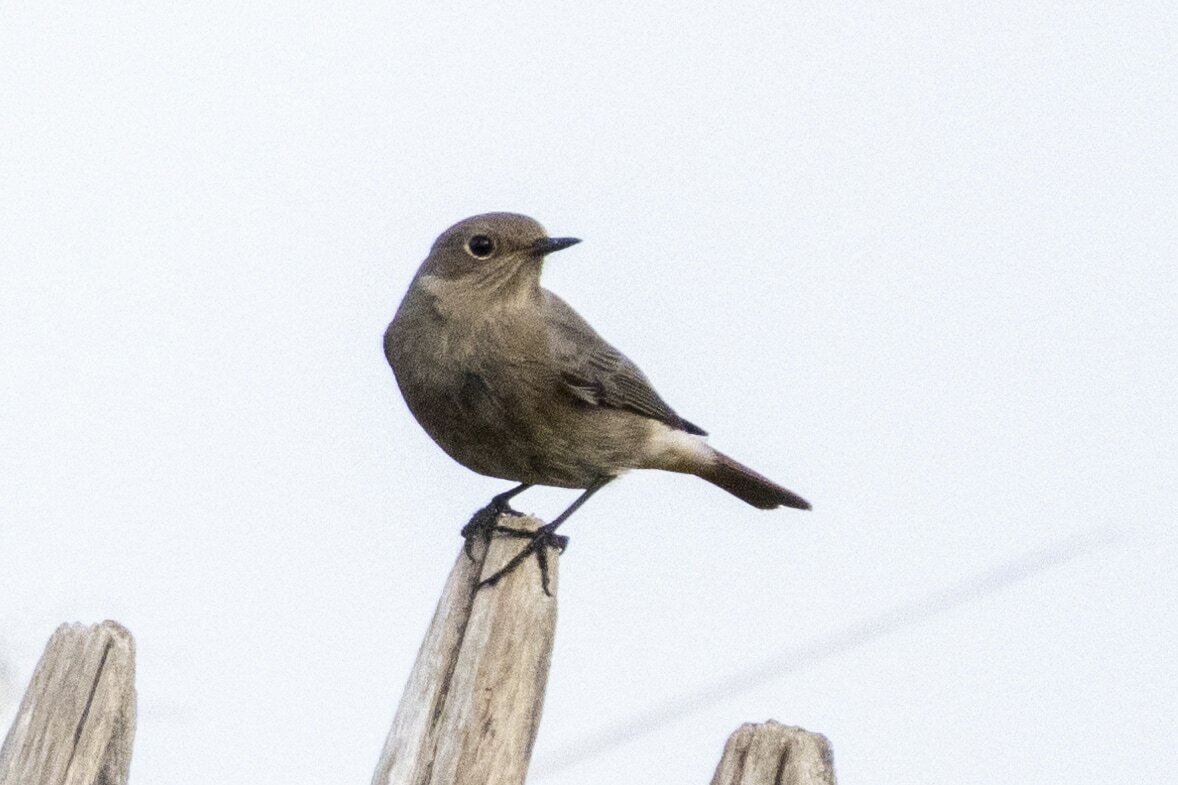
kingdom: Animalia
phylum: Chordata
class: Aves
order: Passeriformes
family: Muscicapidae
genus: Phoenicurus
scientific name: Phoenicurus ochruros
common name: Black redstart
